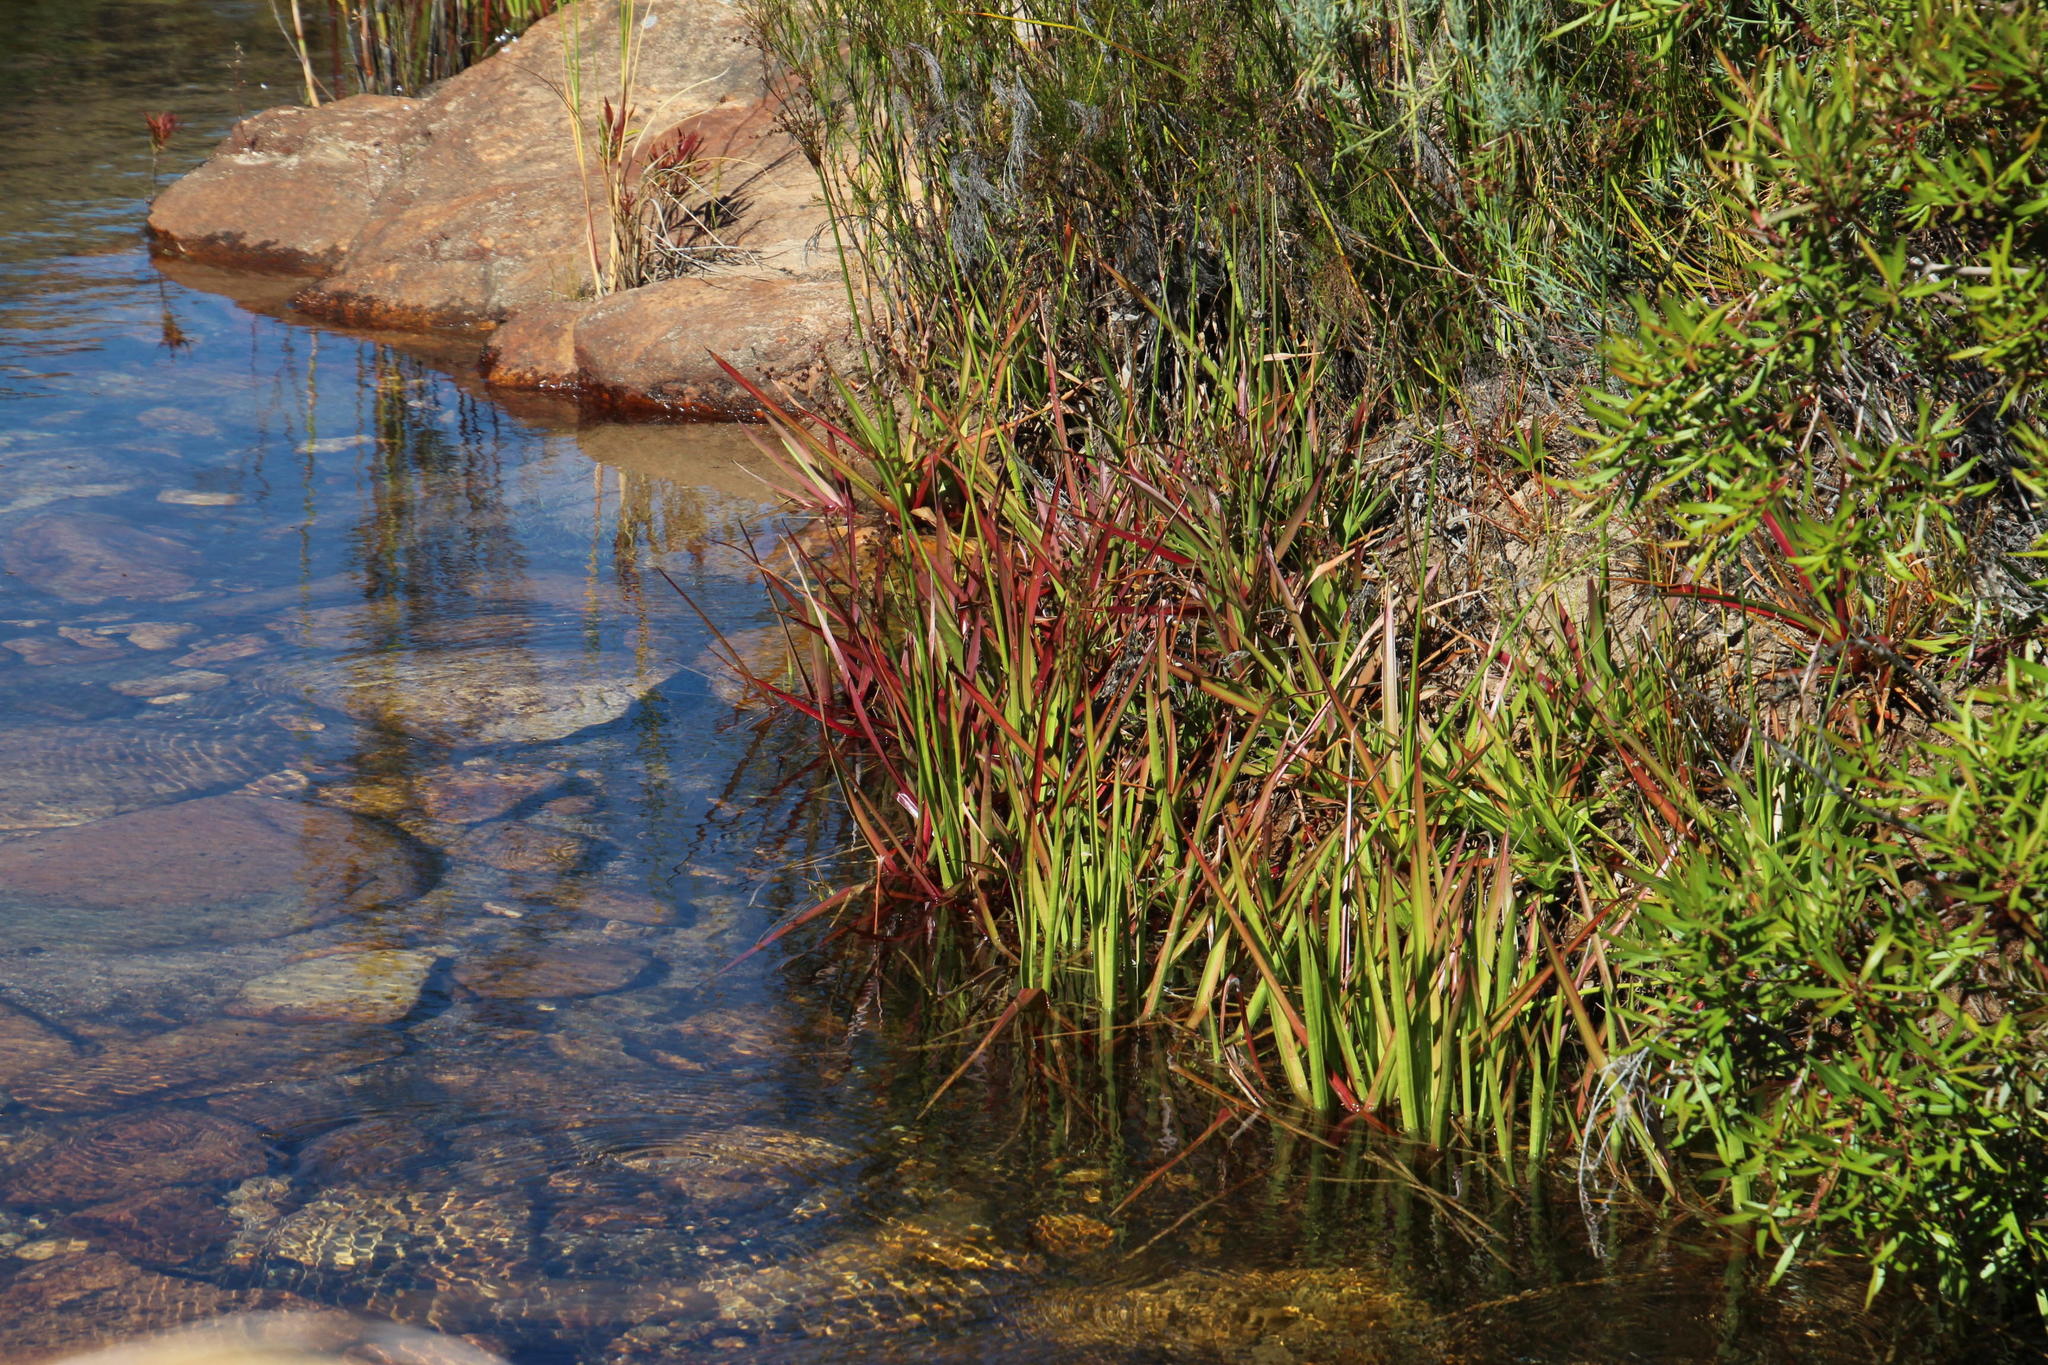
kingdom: Plantae
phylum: Tracheophyta
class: Liliopsida
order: Poales
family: Juncaceae
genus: Juncus
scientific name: Juncus lomatophyllus
